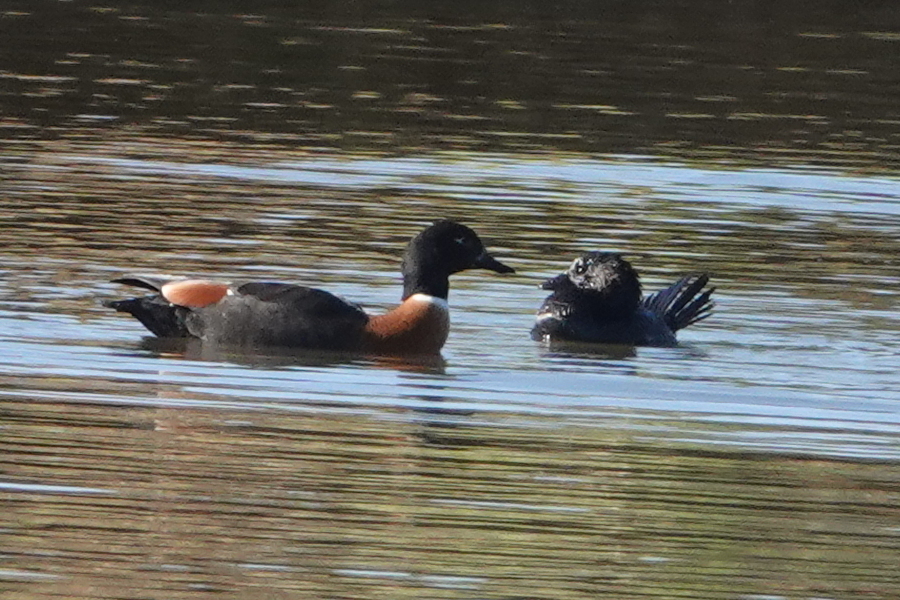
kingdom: Animalia
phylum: Chordata
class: Aves
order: Anseriformes
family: Anatidae
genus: Biziura
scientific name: Biziura lobata
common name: Musk duck
